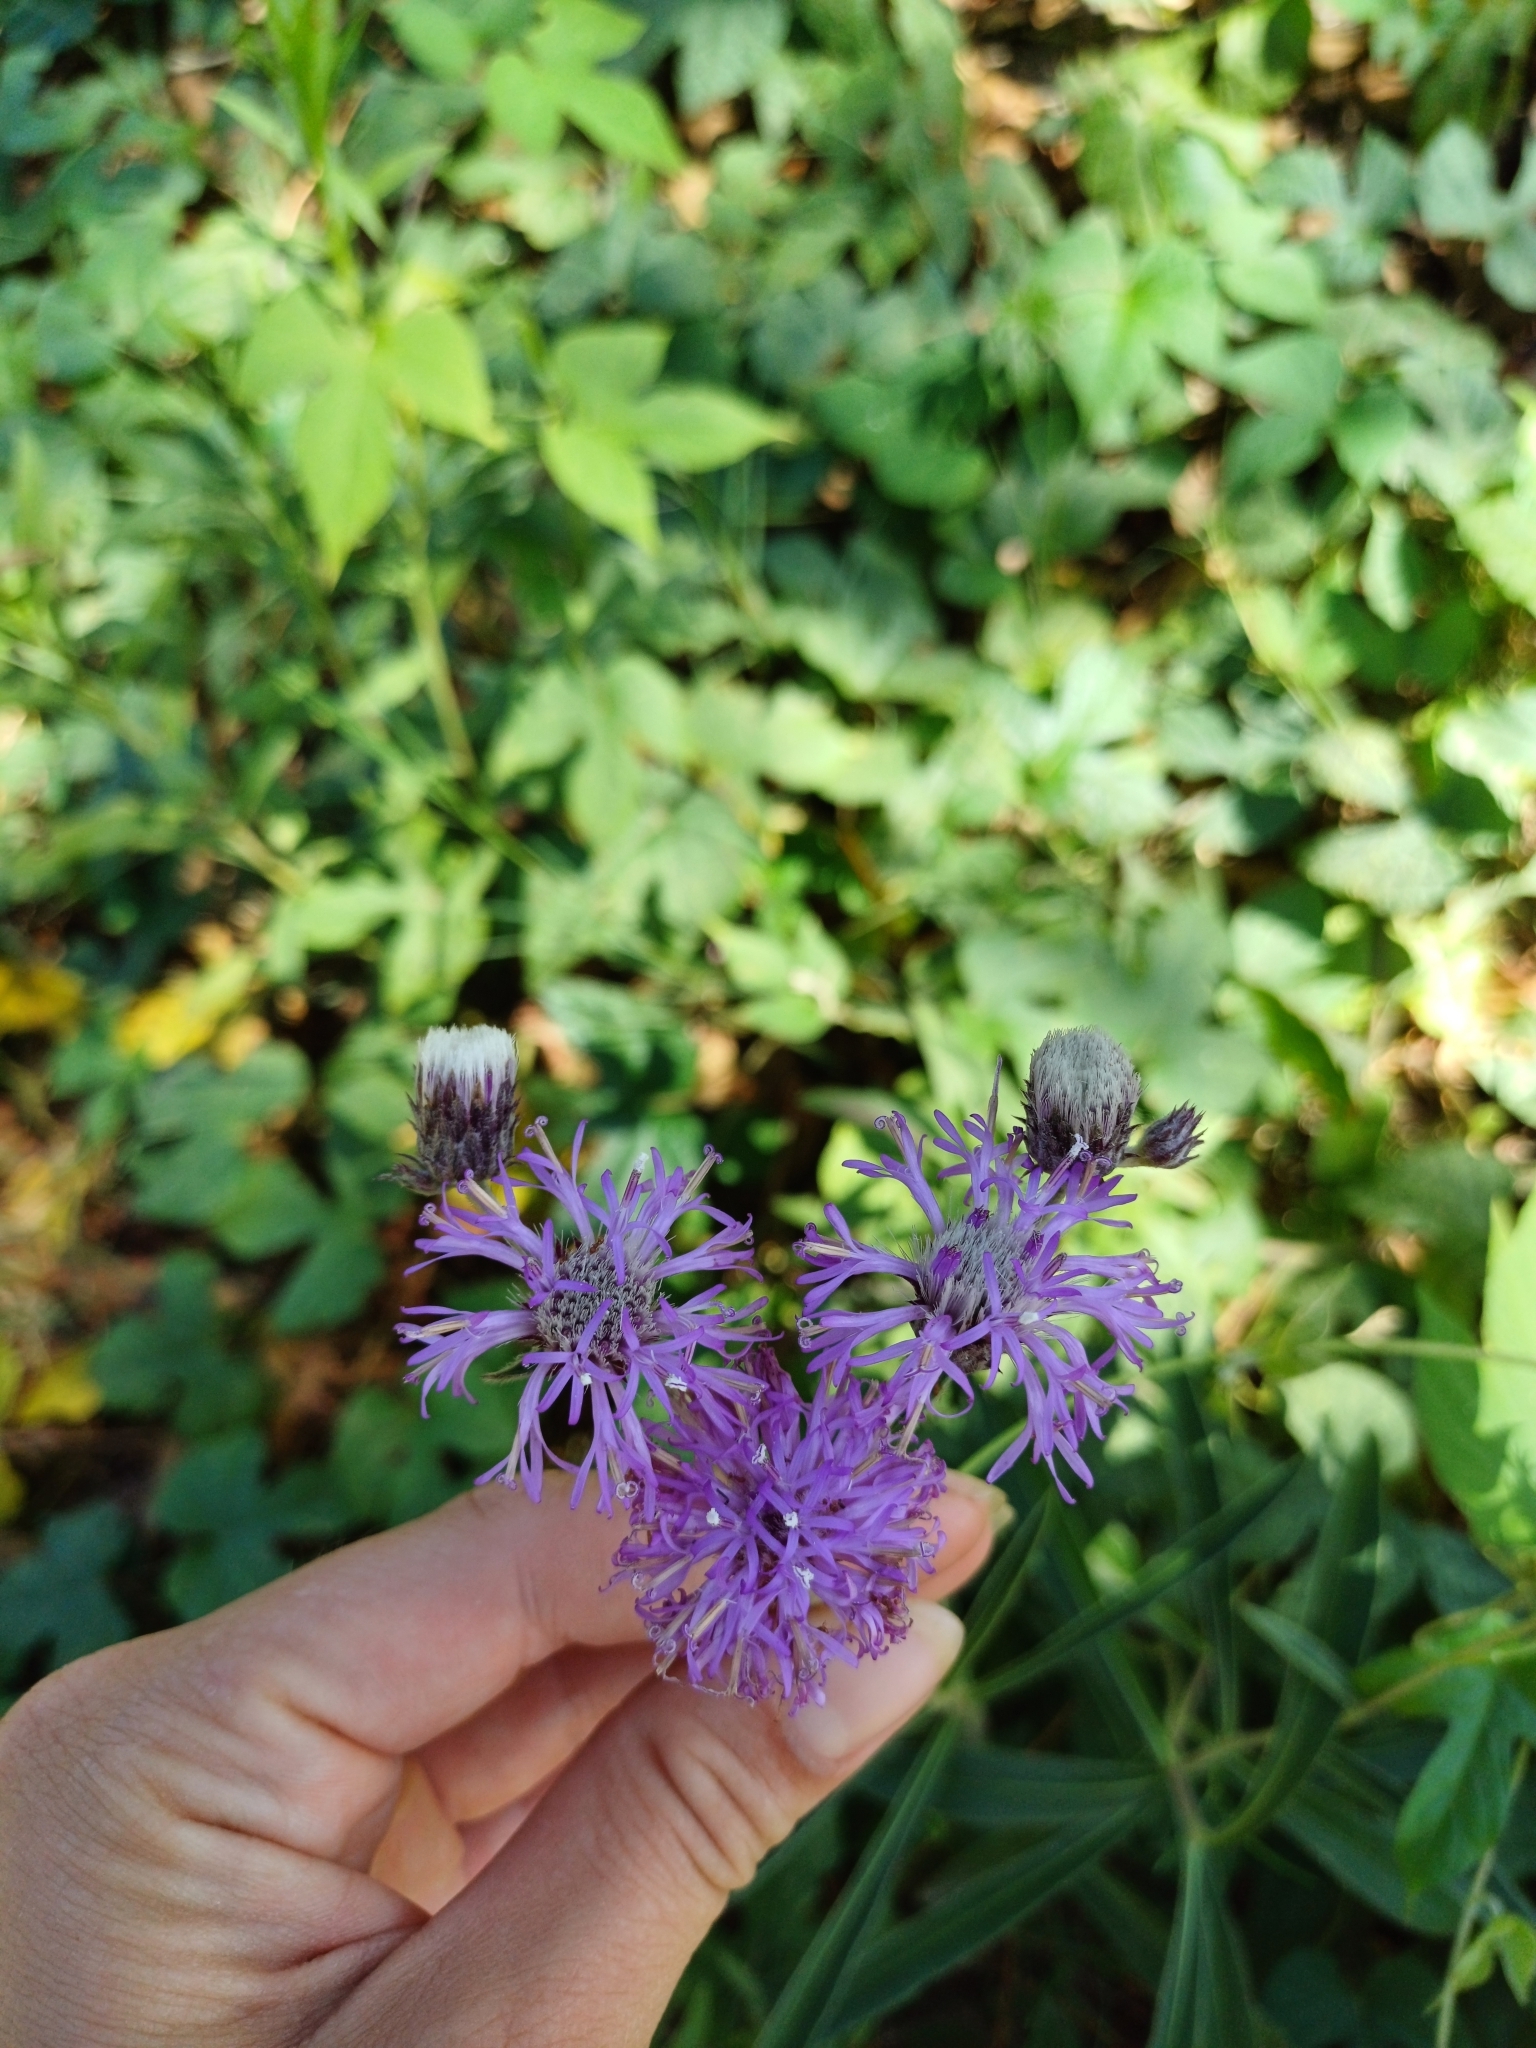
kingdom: Plantae
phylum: Tracheophyta
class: Magnoliopsida
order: Asterales
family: Asteraceae
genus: Chrysolaena
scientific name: Chrysolaena flexuosa
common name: Zig-zag vernonia
